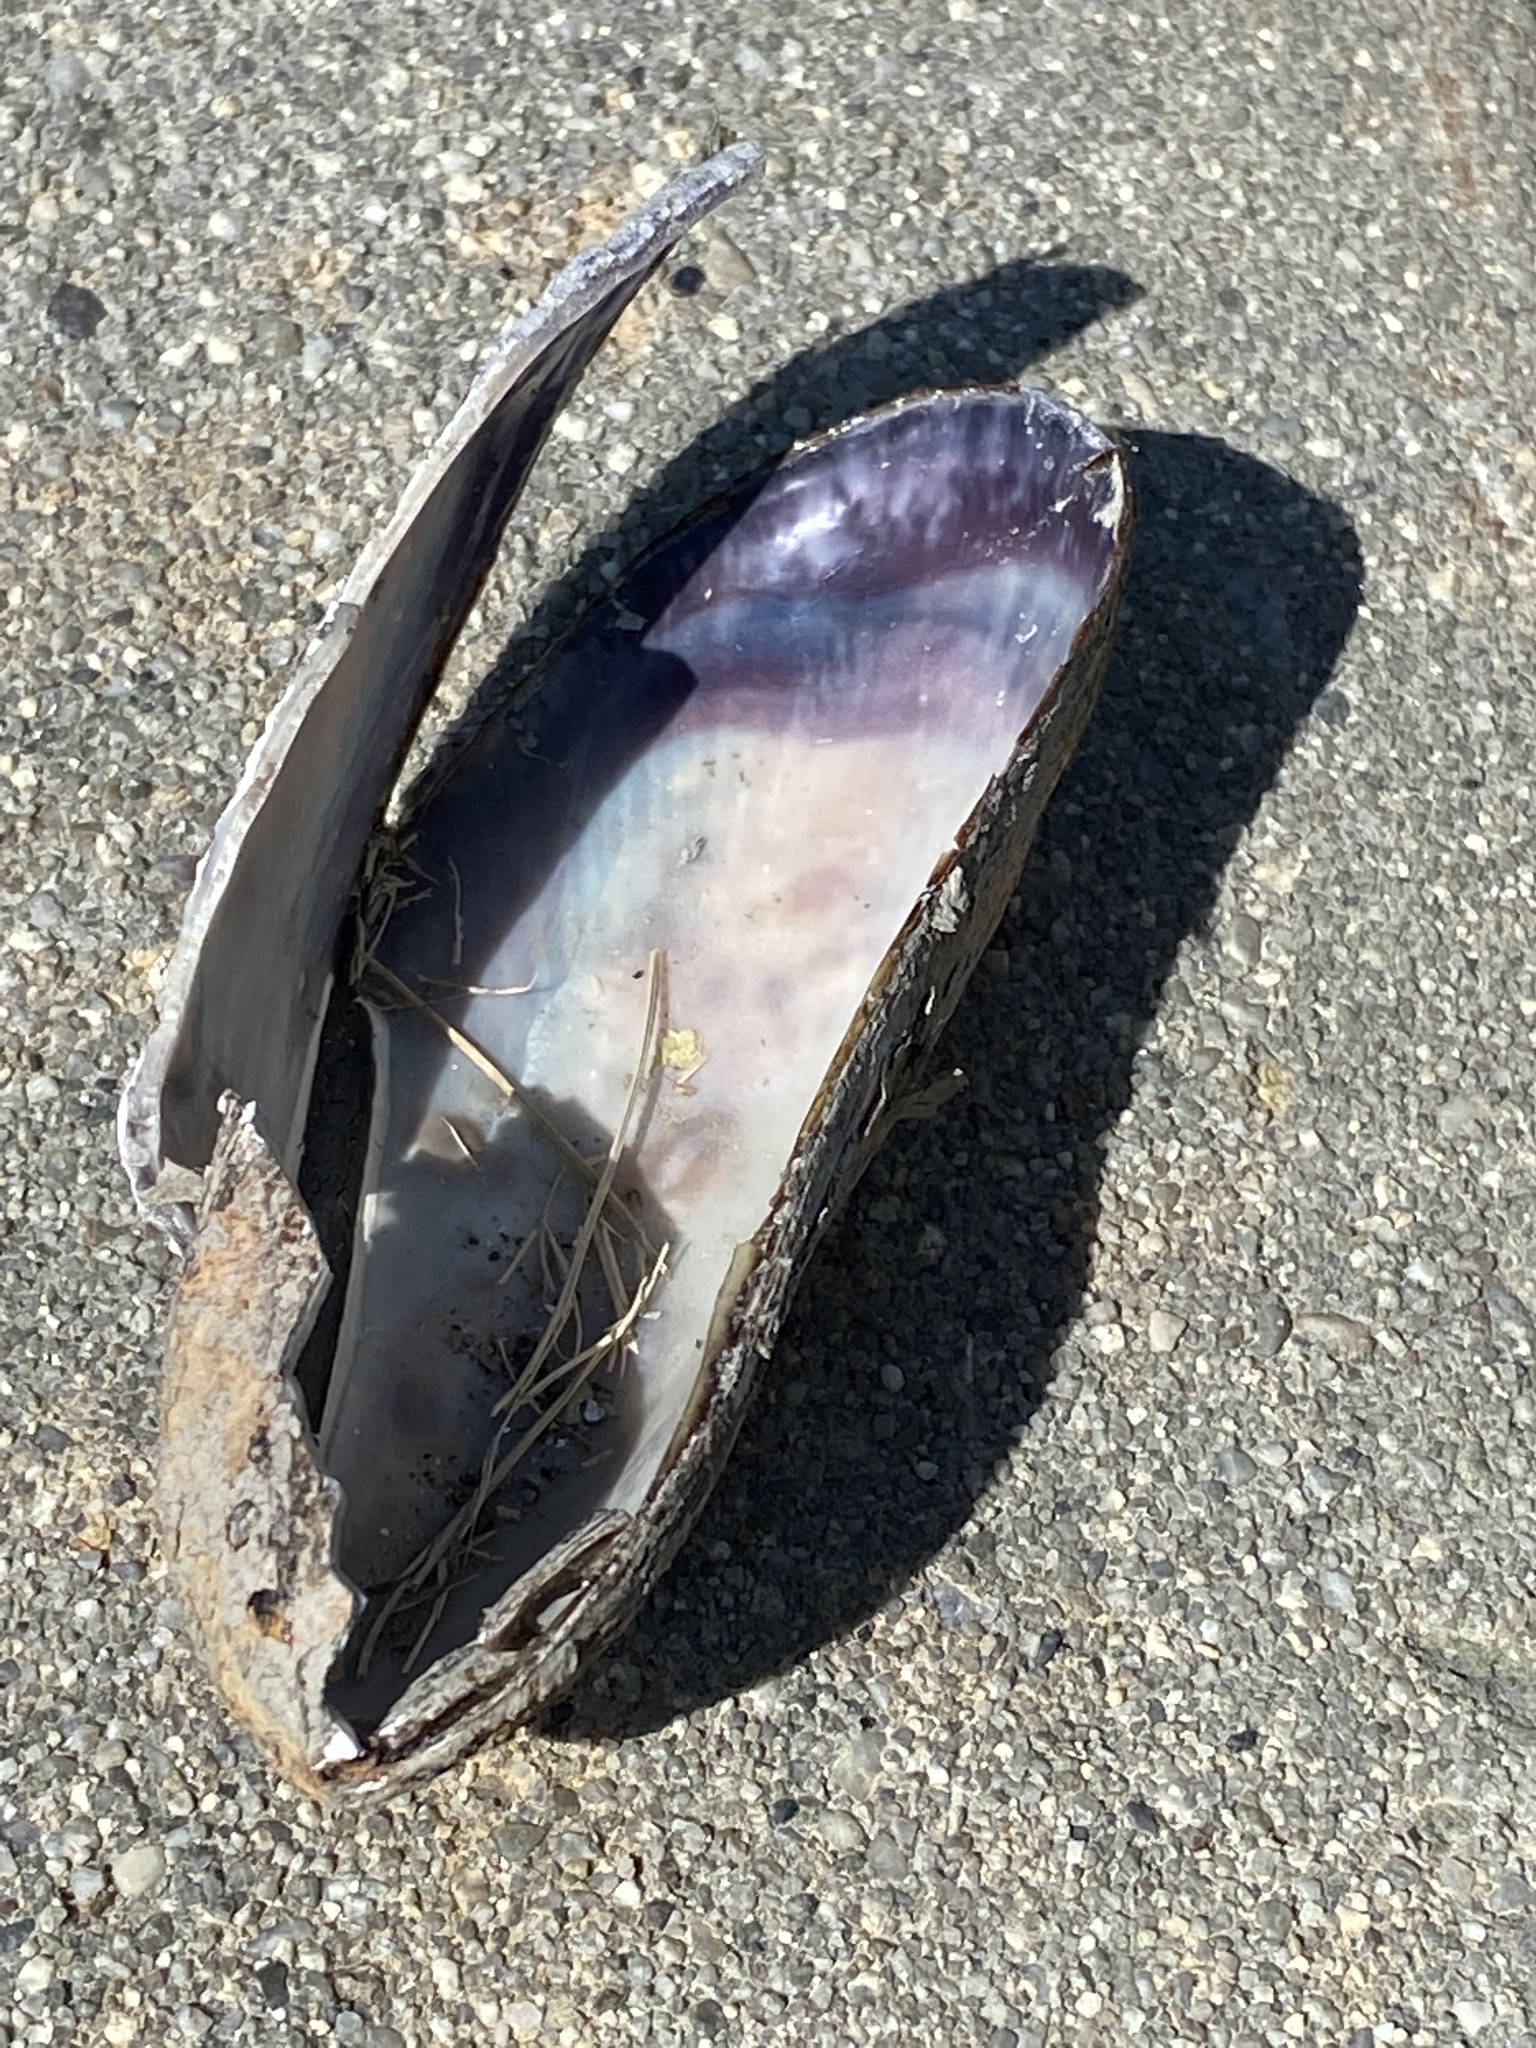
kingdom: Animalia
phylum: Mollusca
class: Bivalvia
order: Mytilida
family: Mytilidae
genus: Geukensia
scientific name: Geukensia demissa
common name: Ribbed mussel
